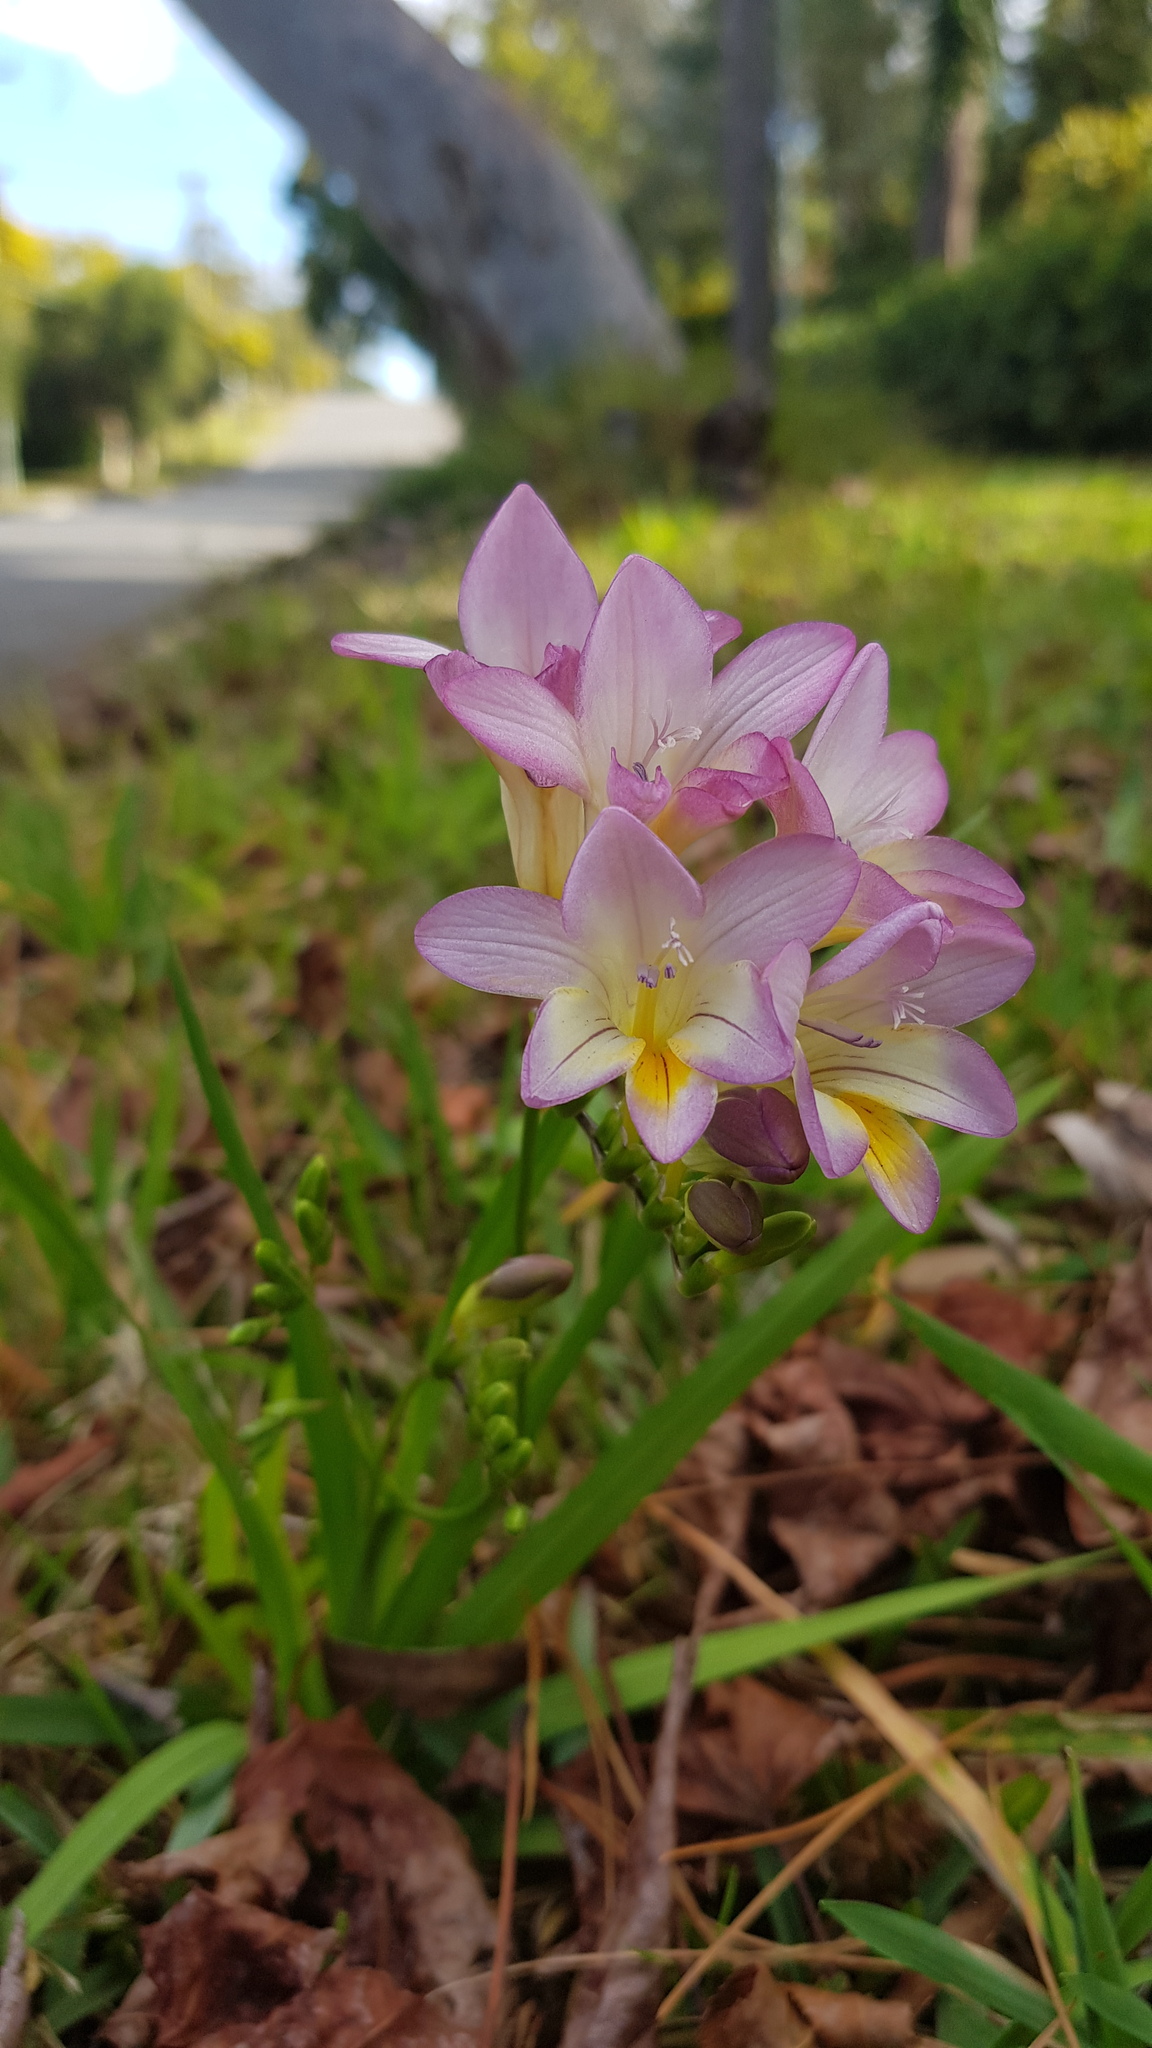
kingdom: Plantae
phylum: Tracheophyta
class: Liliopsida
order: Asparagales
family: Iridaceae
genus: Freesia
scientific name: Freesia leichtlinii
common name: Freesia
